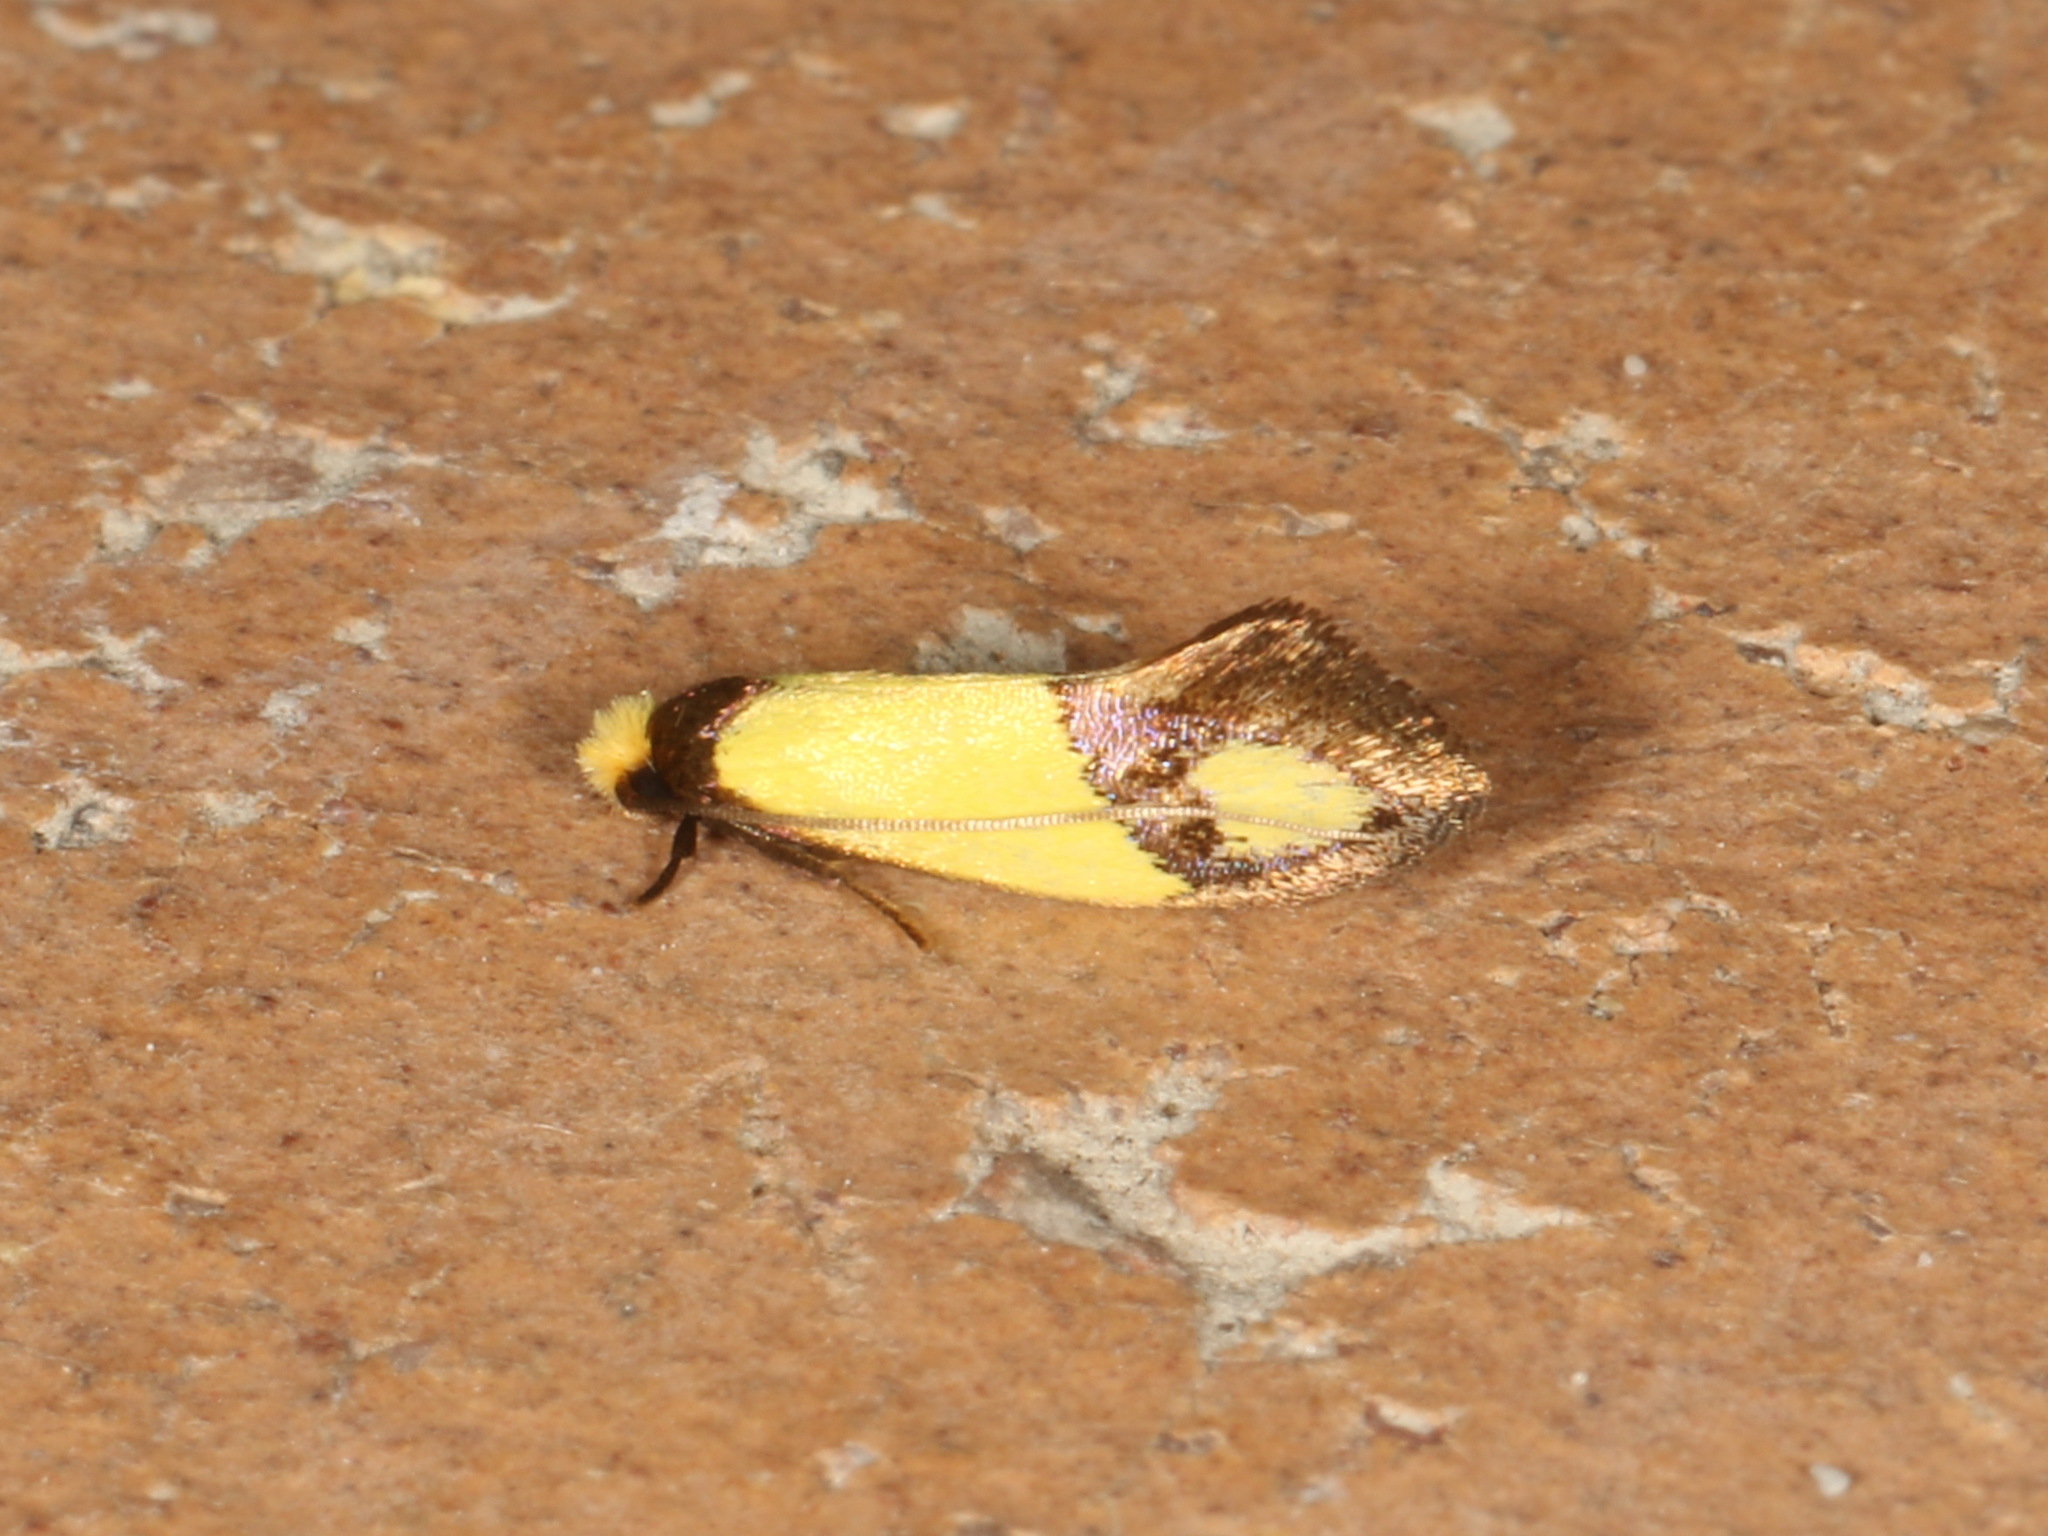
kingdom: Animalia
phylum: Arthropoda
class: Insecta
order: Lepidoptera
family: Tineidae
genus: Edosa
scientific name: Edosa fraudulens
